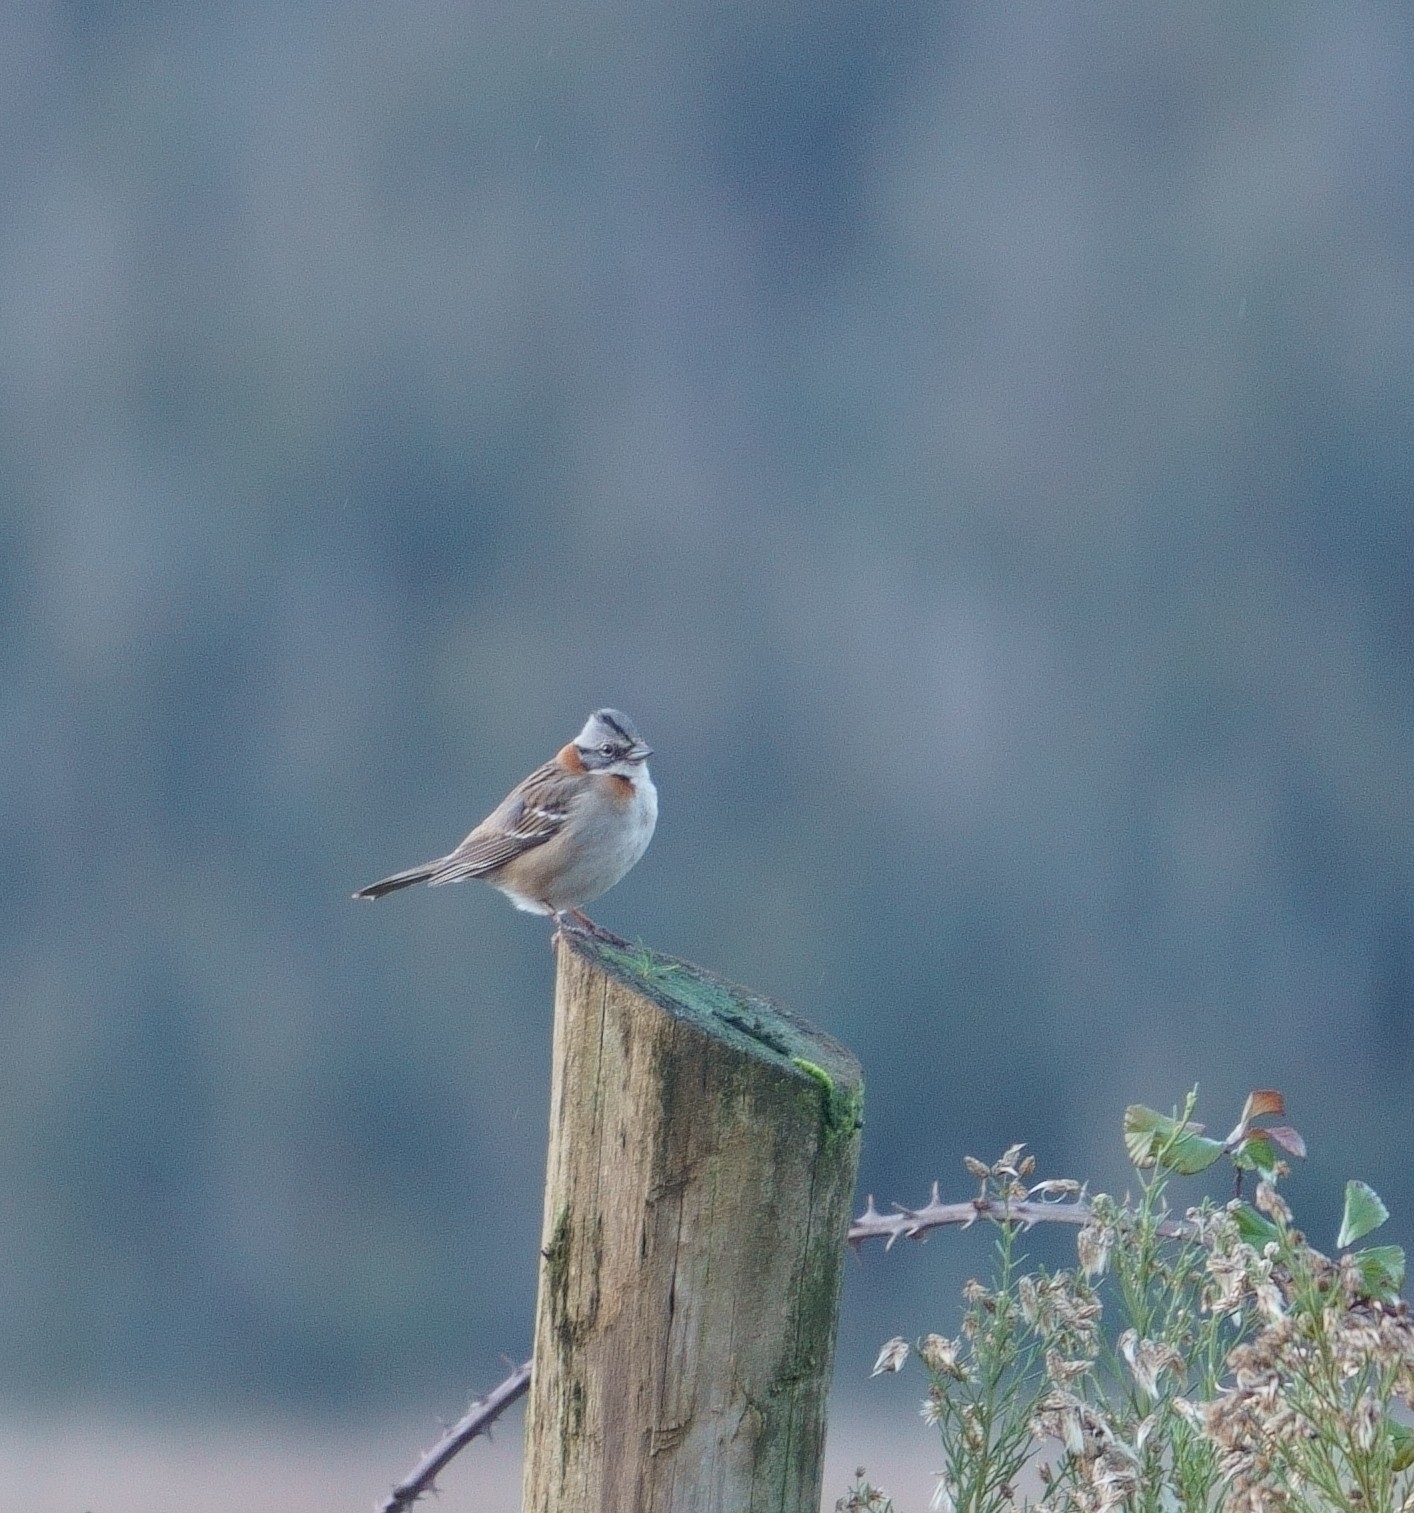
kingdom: Animalia
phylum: Chordata
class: Aves
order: Passeriformes
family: Passerellidae
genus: Zonotrichia
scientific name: Zonotrichia capensis
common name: Rufous-collared sparrow
